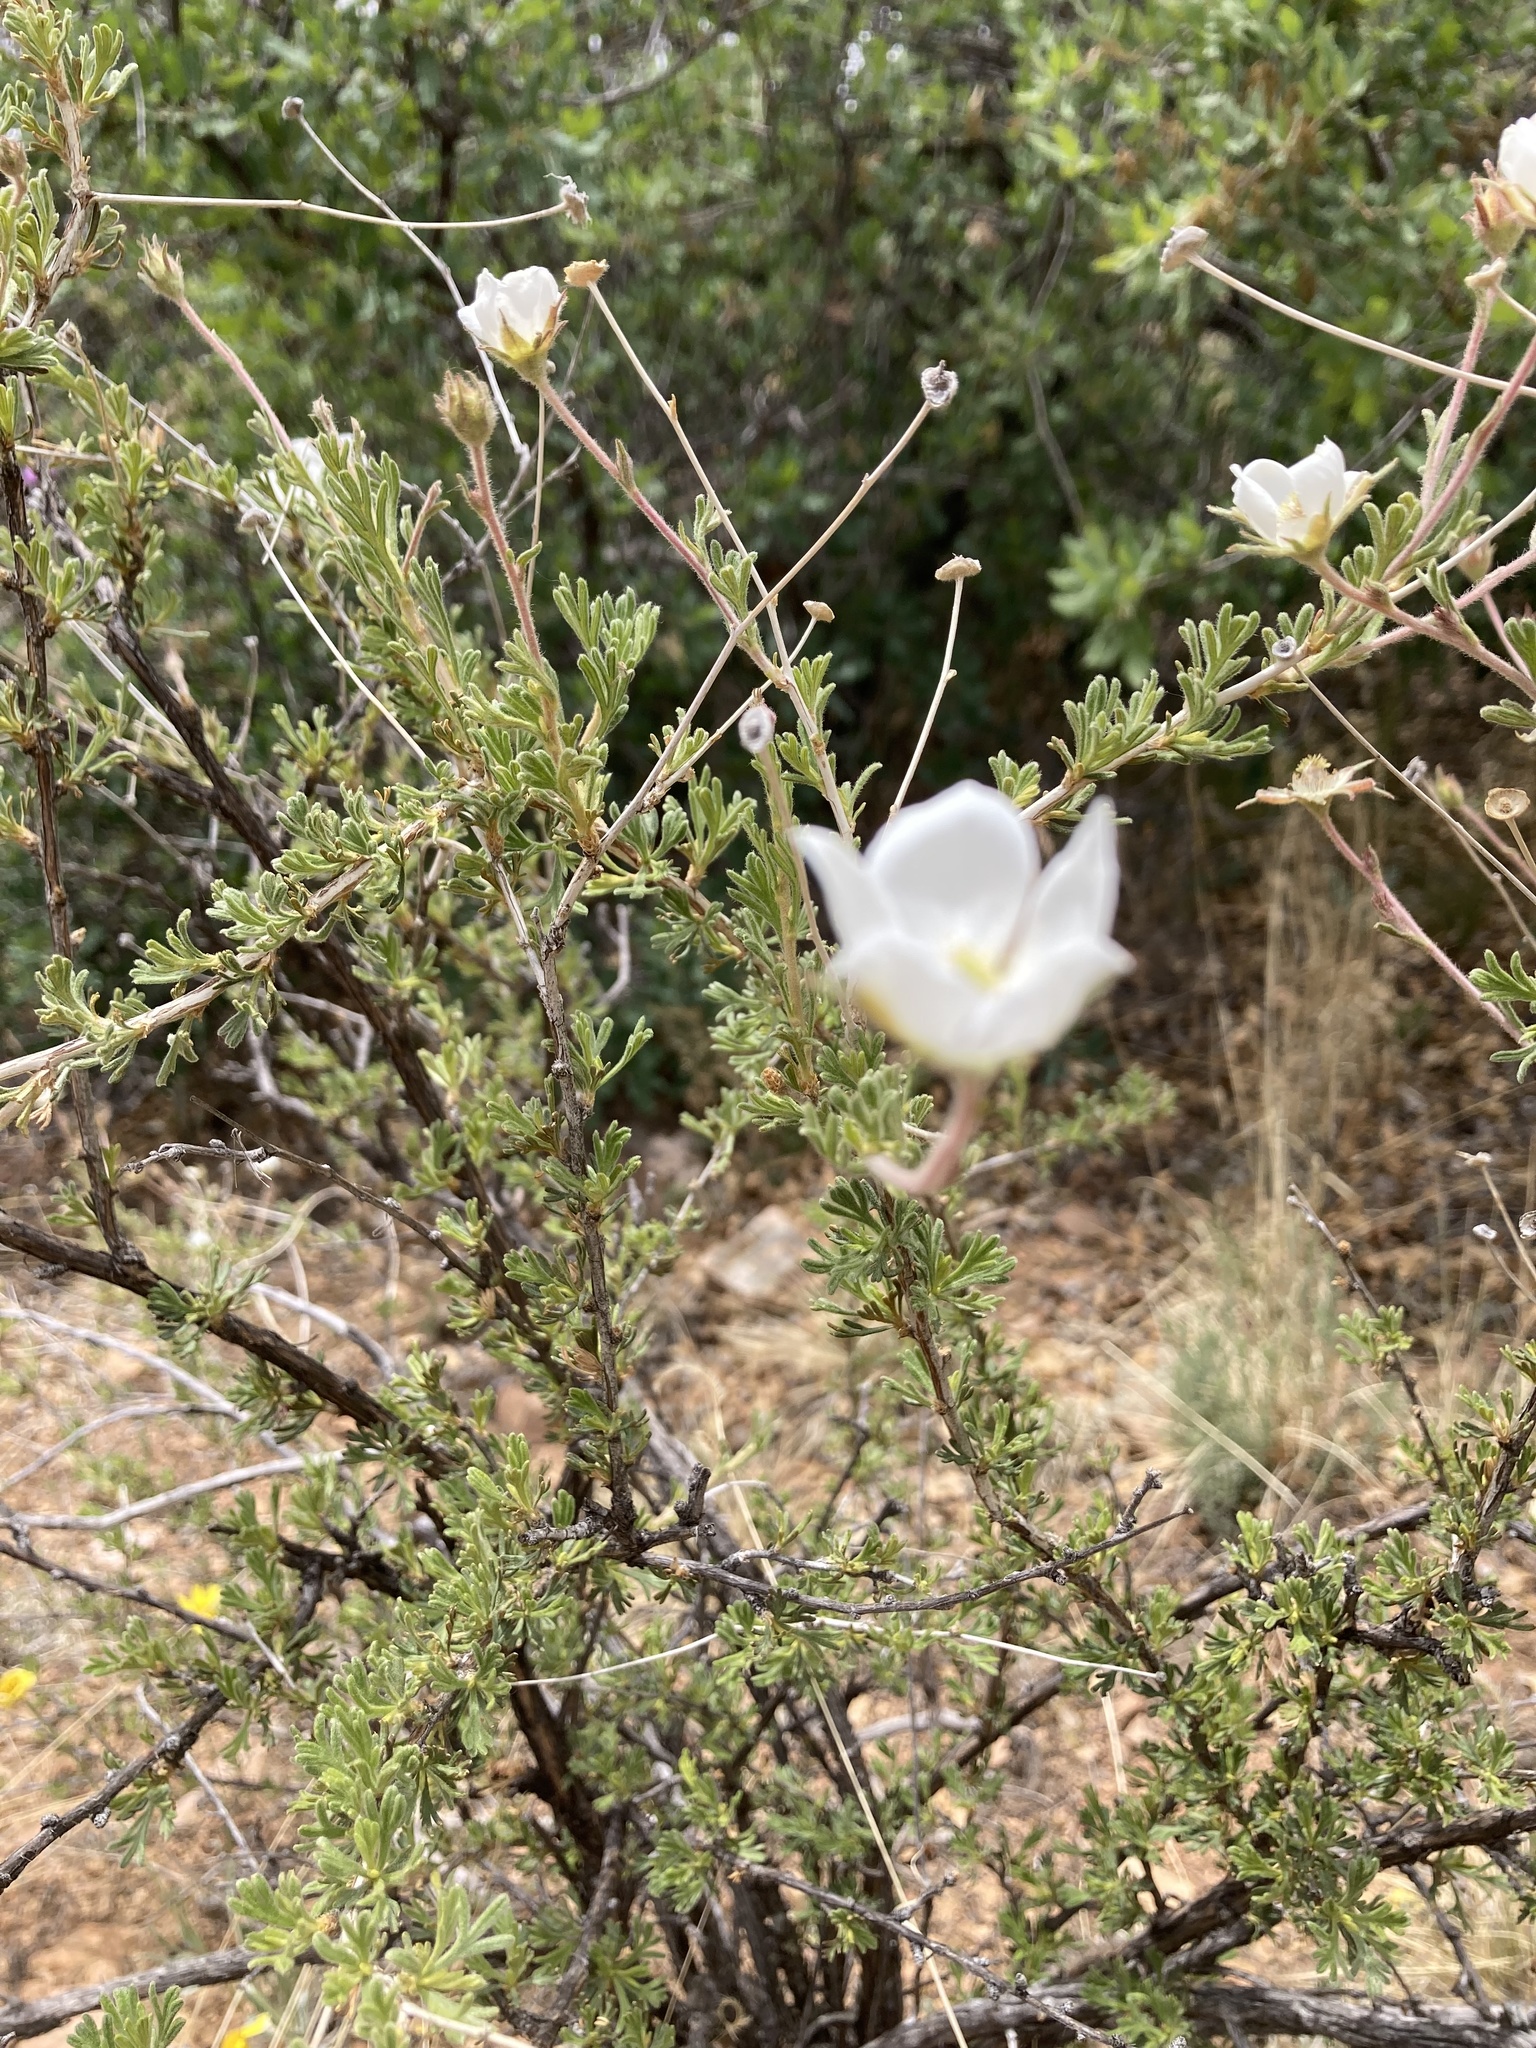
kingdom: Plantae
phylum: Tracheophyta
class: Magnoliopsida
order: Rosales
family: Rosaceae
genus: Fallugia
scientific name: Fallugia paradoxa
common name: Apache-plume
